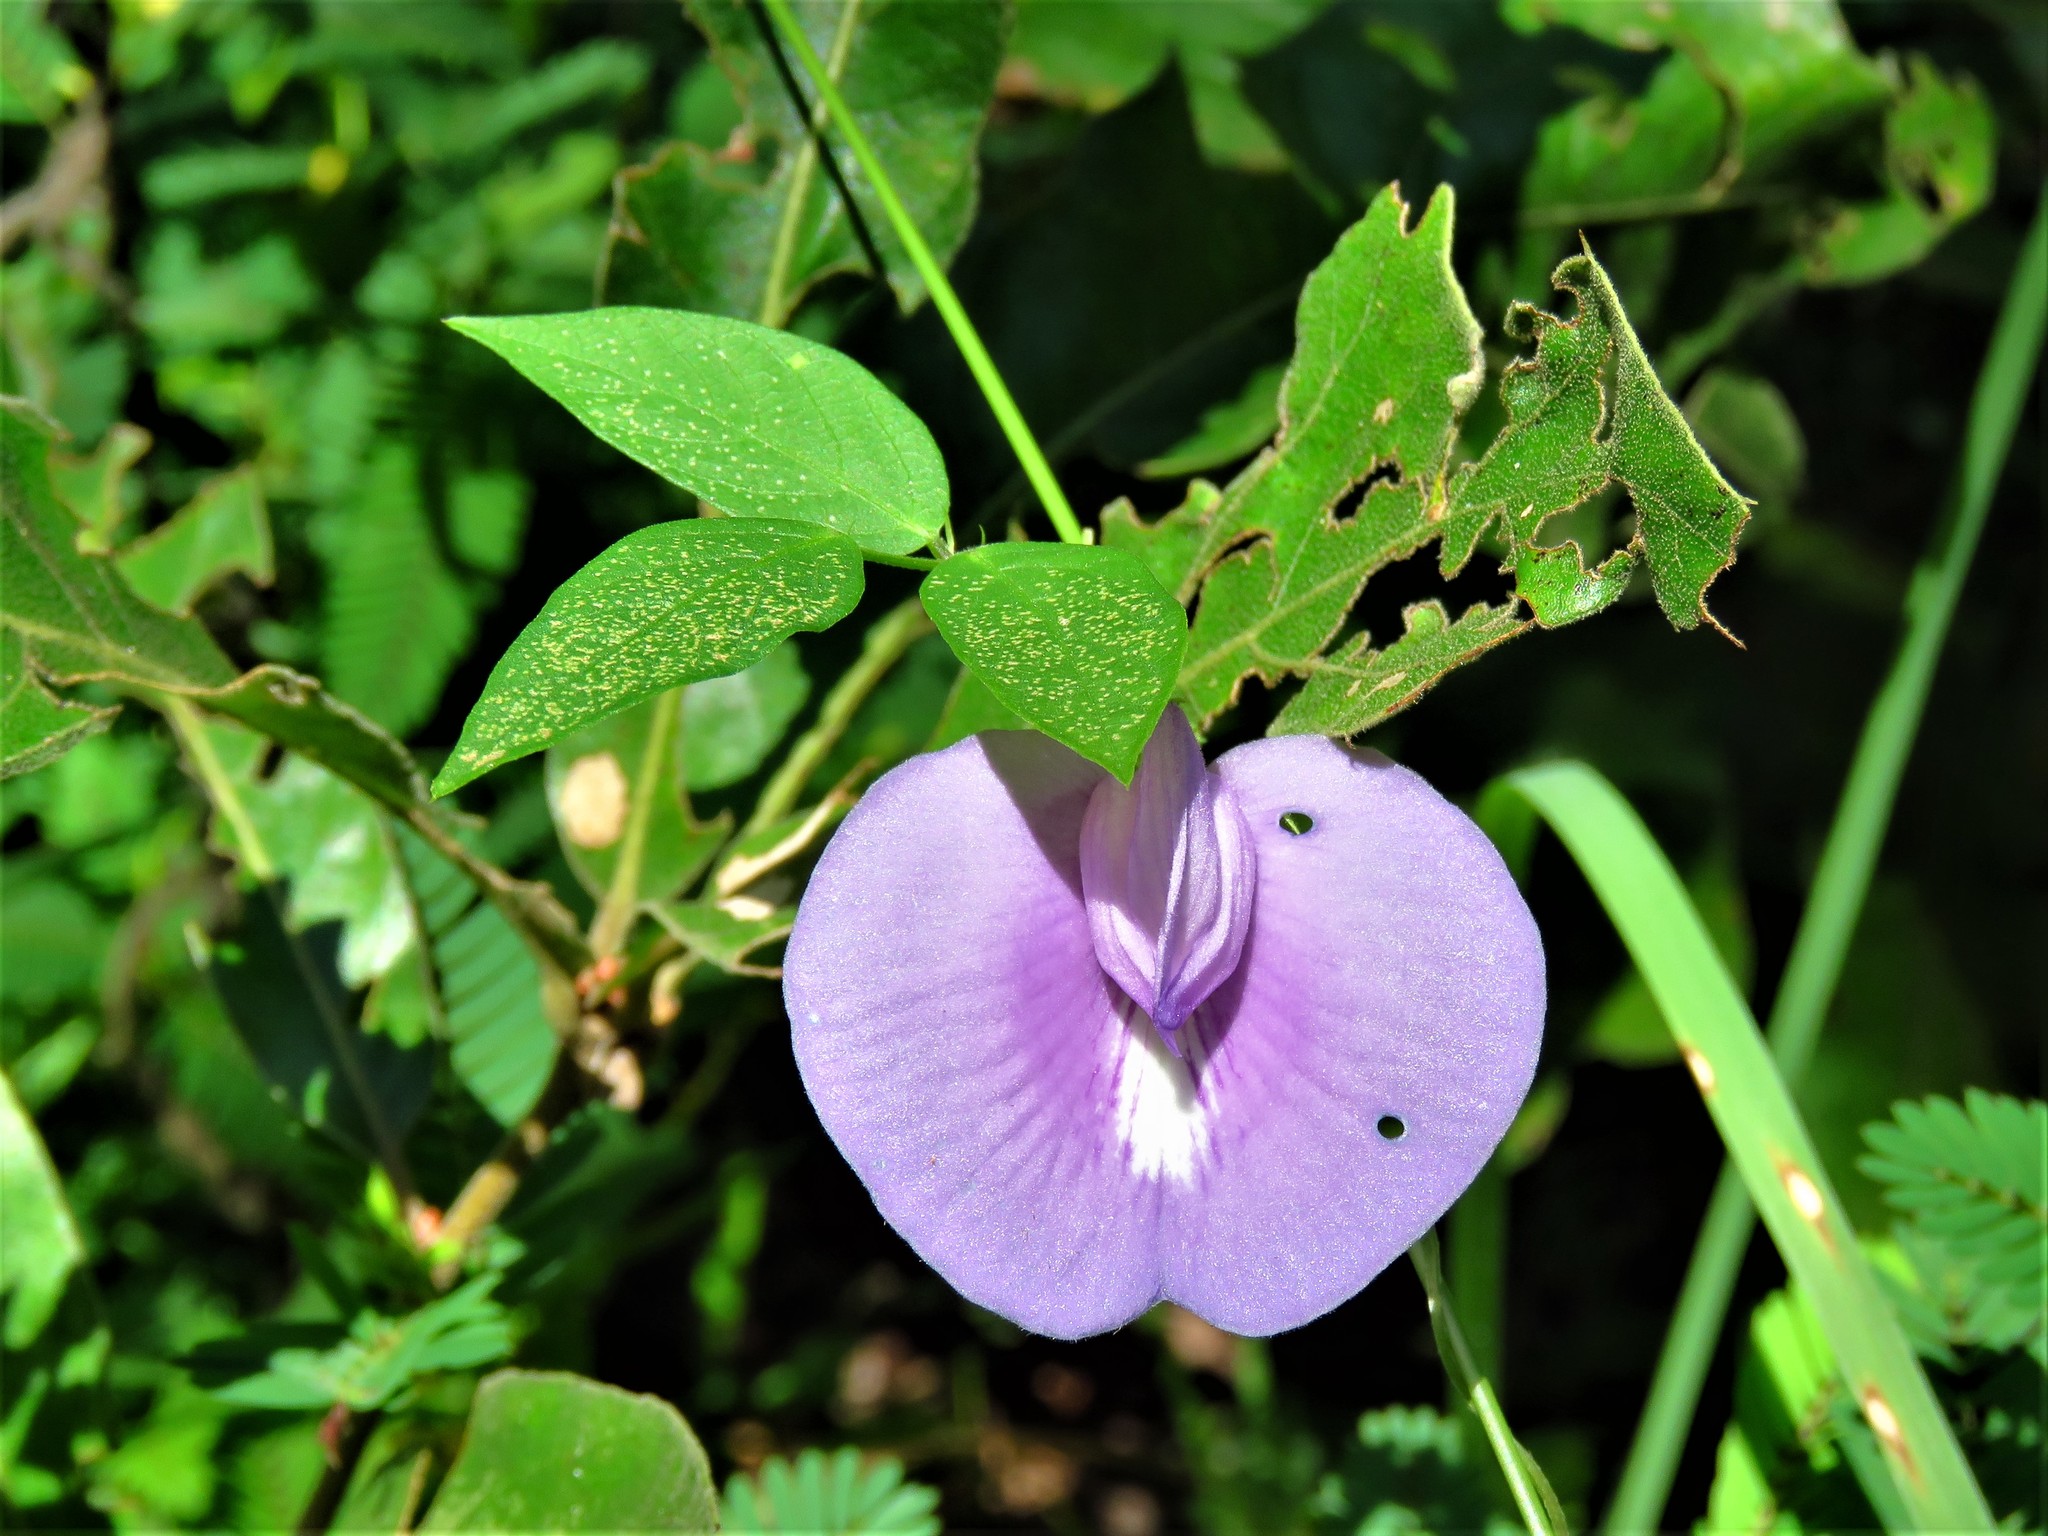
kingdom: Plantae
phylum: Tracheophyta
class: Magnoliopsida
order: Fabales
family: Fabaceae
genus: Centrosema
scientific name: Centrosema virginianum
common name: Butterfly-pea
